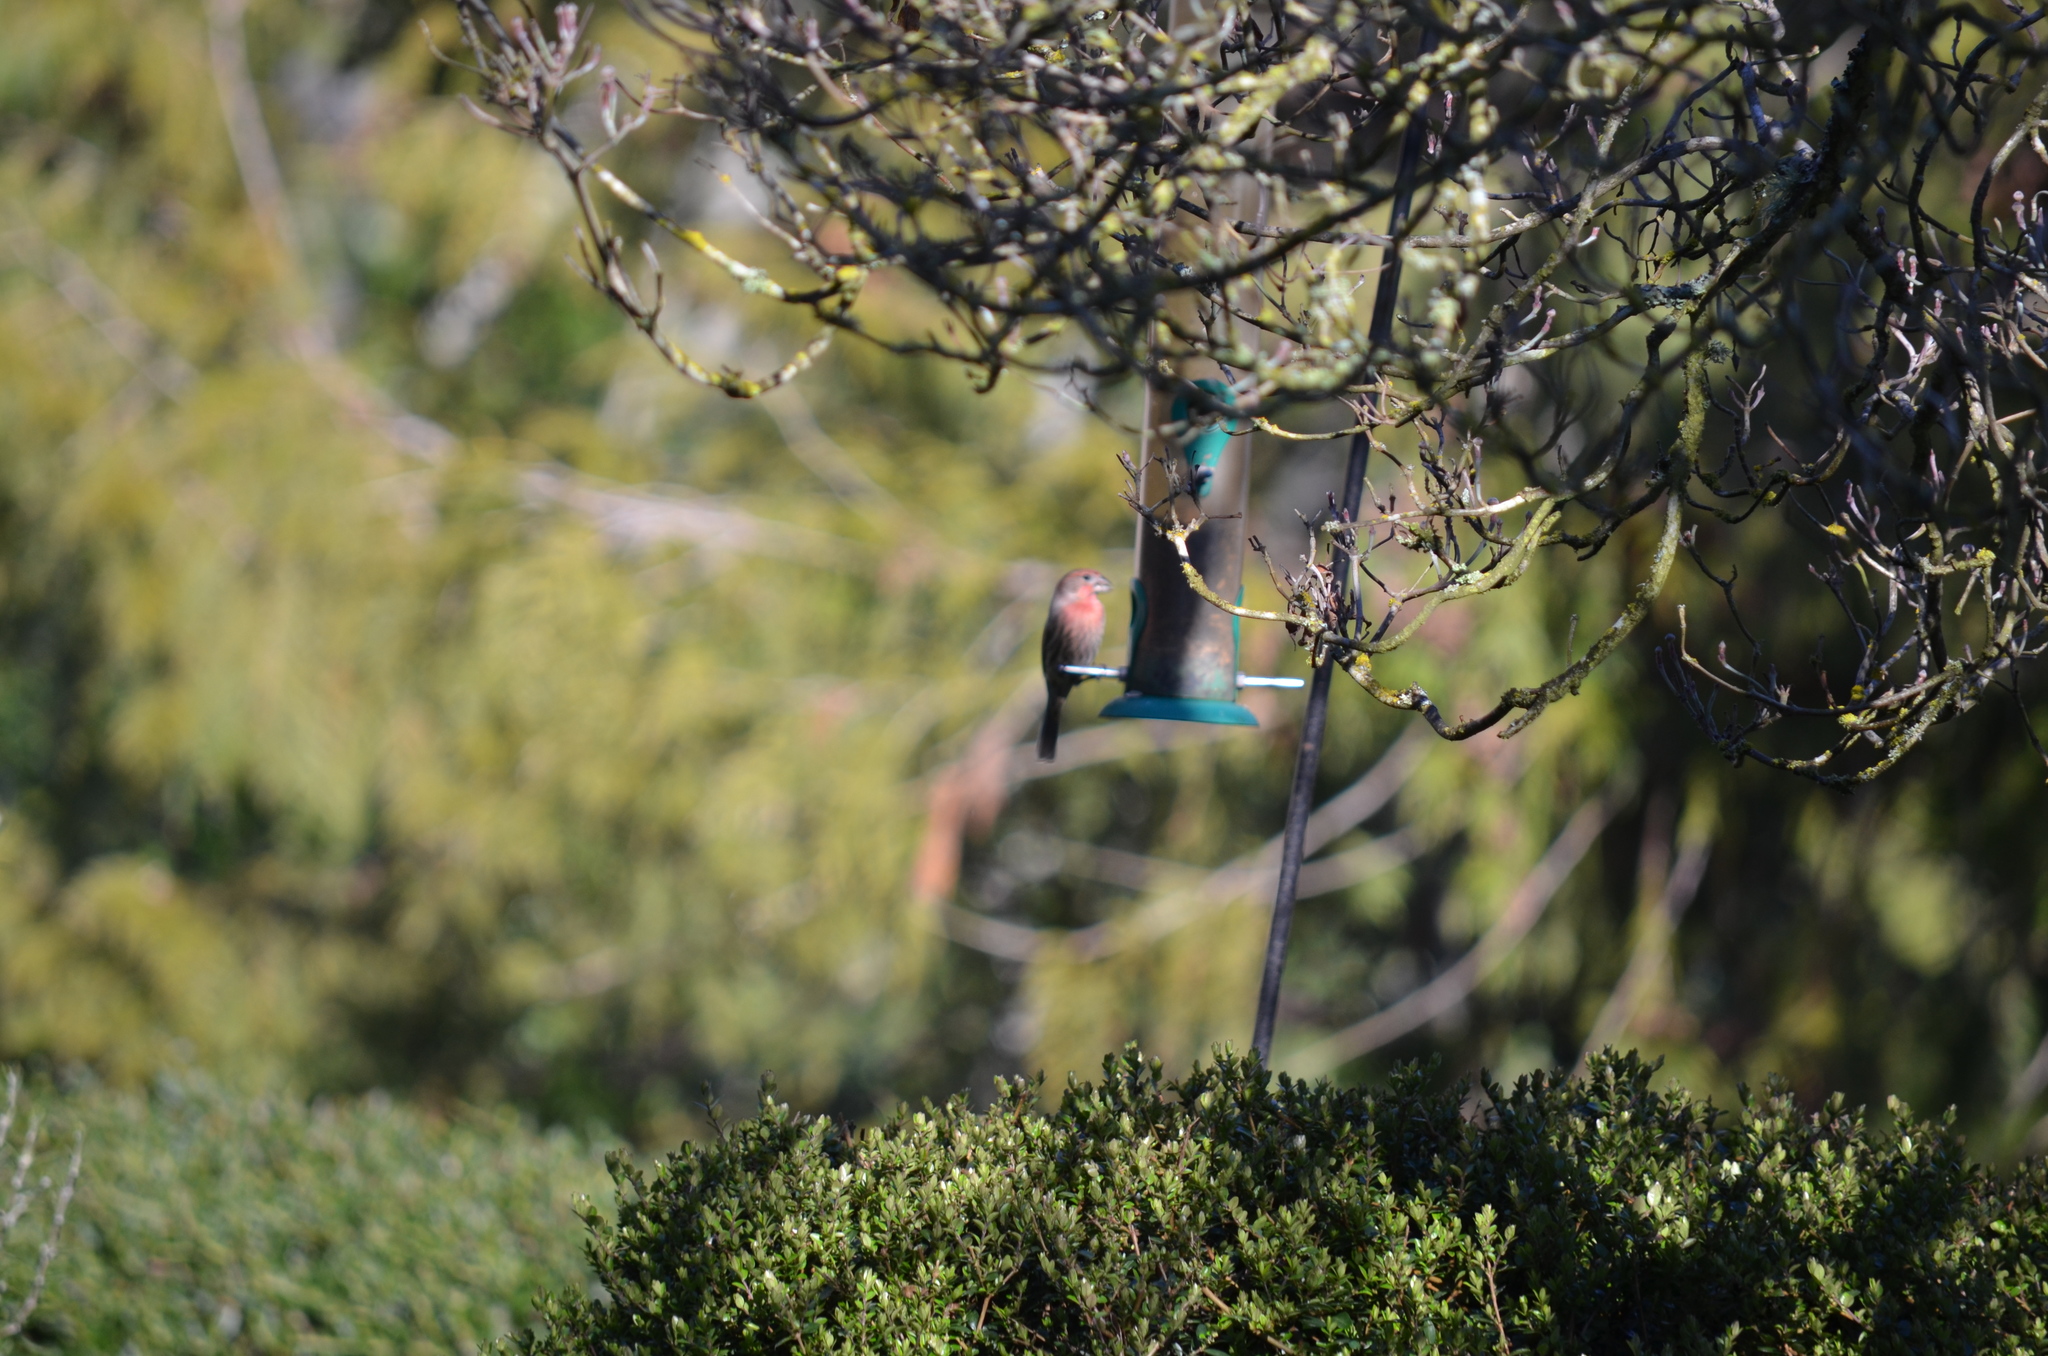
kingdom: Animalia
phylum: Chordata
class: Aves
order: Passeriformes
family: Fringillidae
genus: Haemorhous
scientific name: Haemorhous mexicanus
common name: House finch
